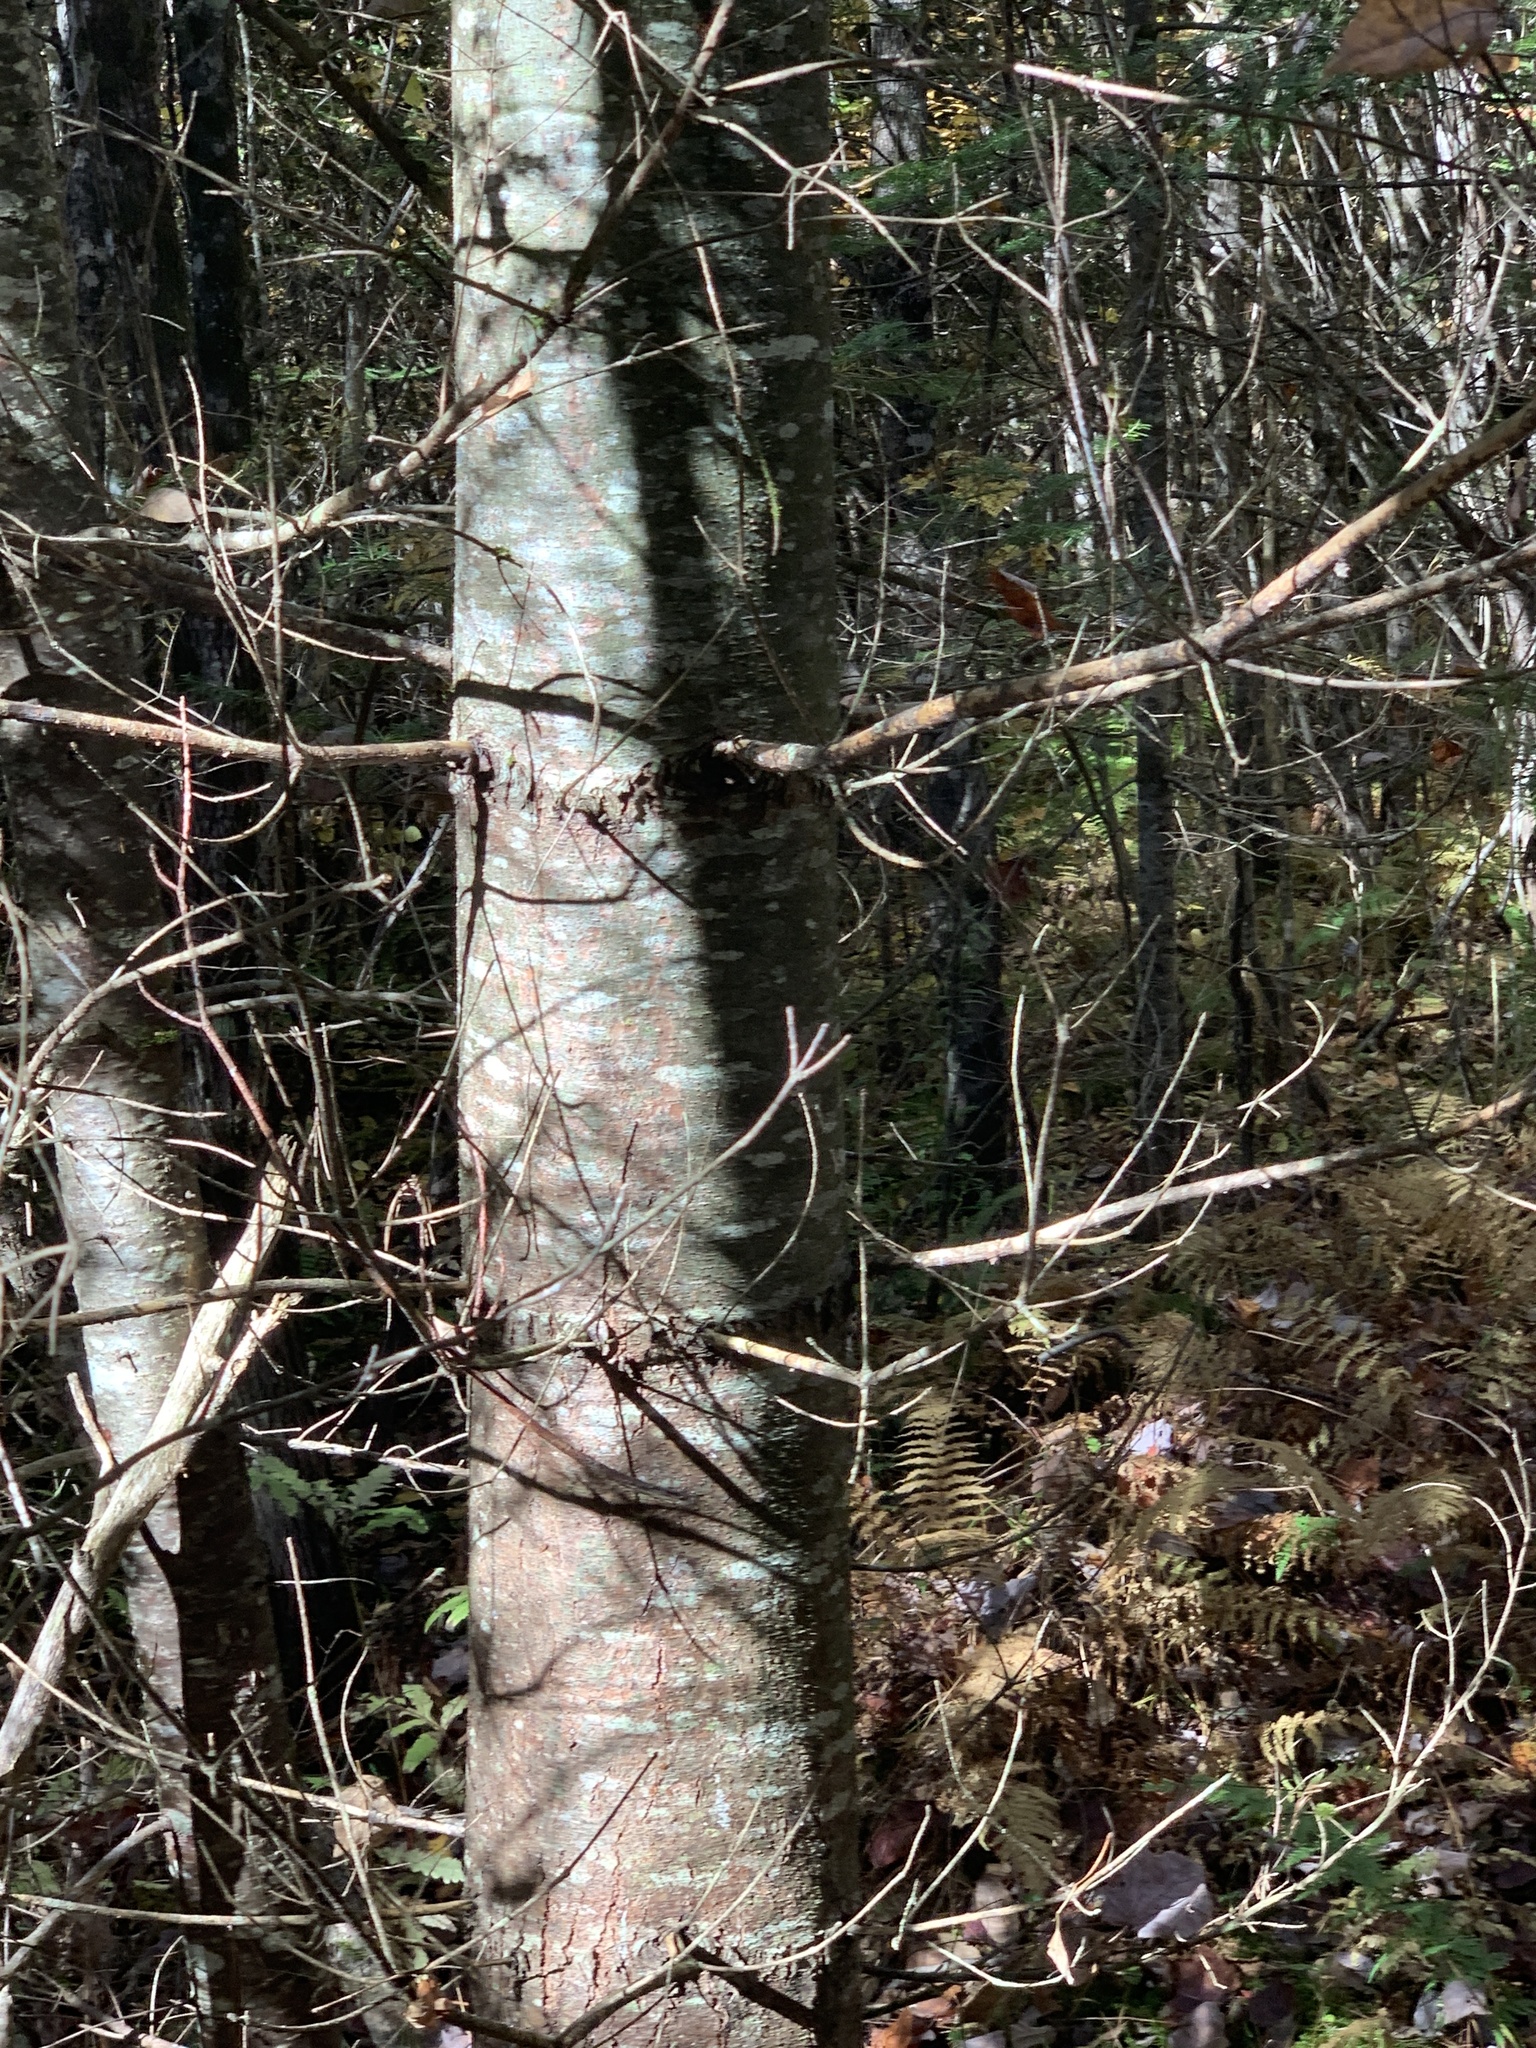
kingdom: Plantae
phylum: Tracheophyta
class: Pinopsida
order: Pinales
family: Pinaceae
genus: Pinus
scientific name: Pinus strobus
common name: Weymouth pine
